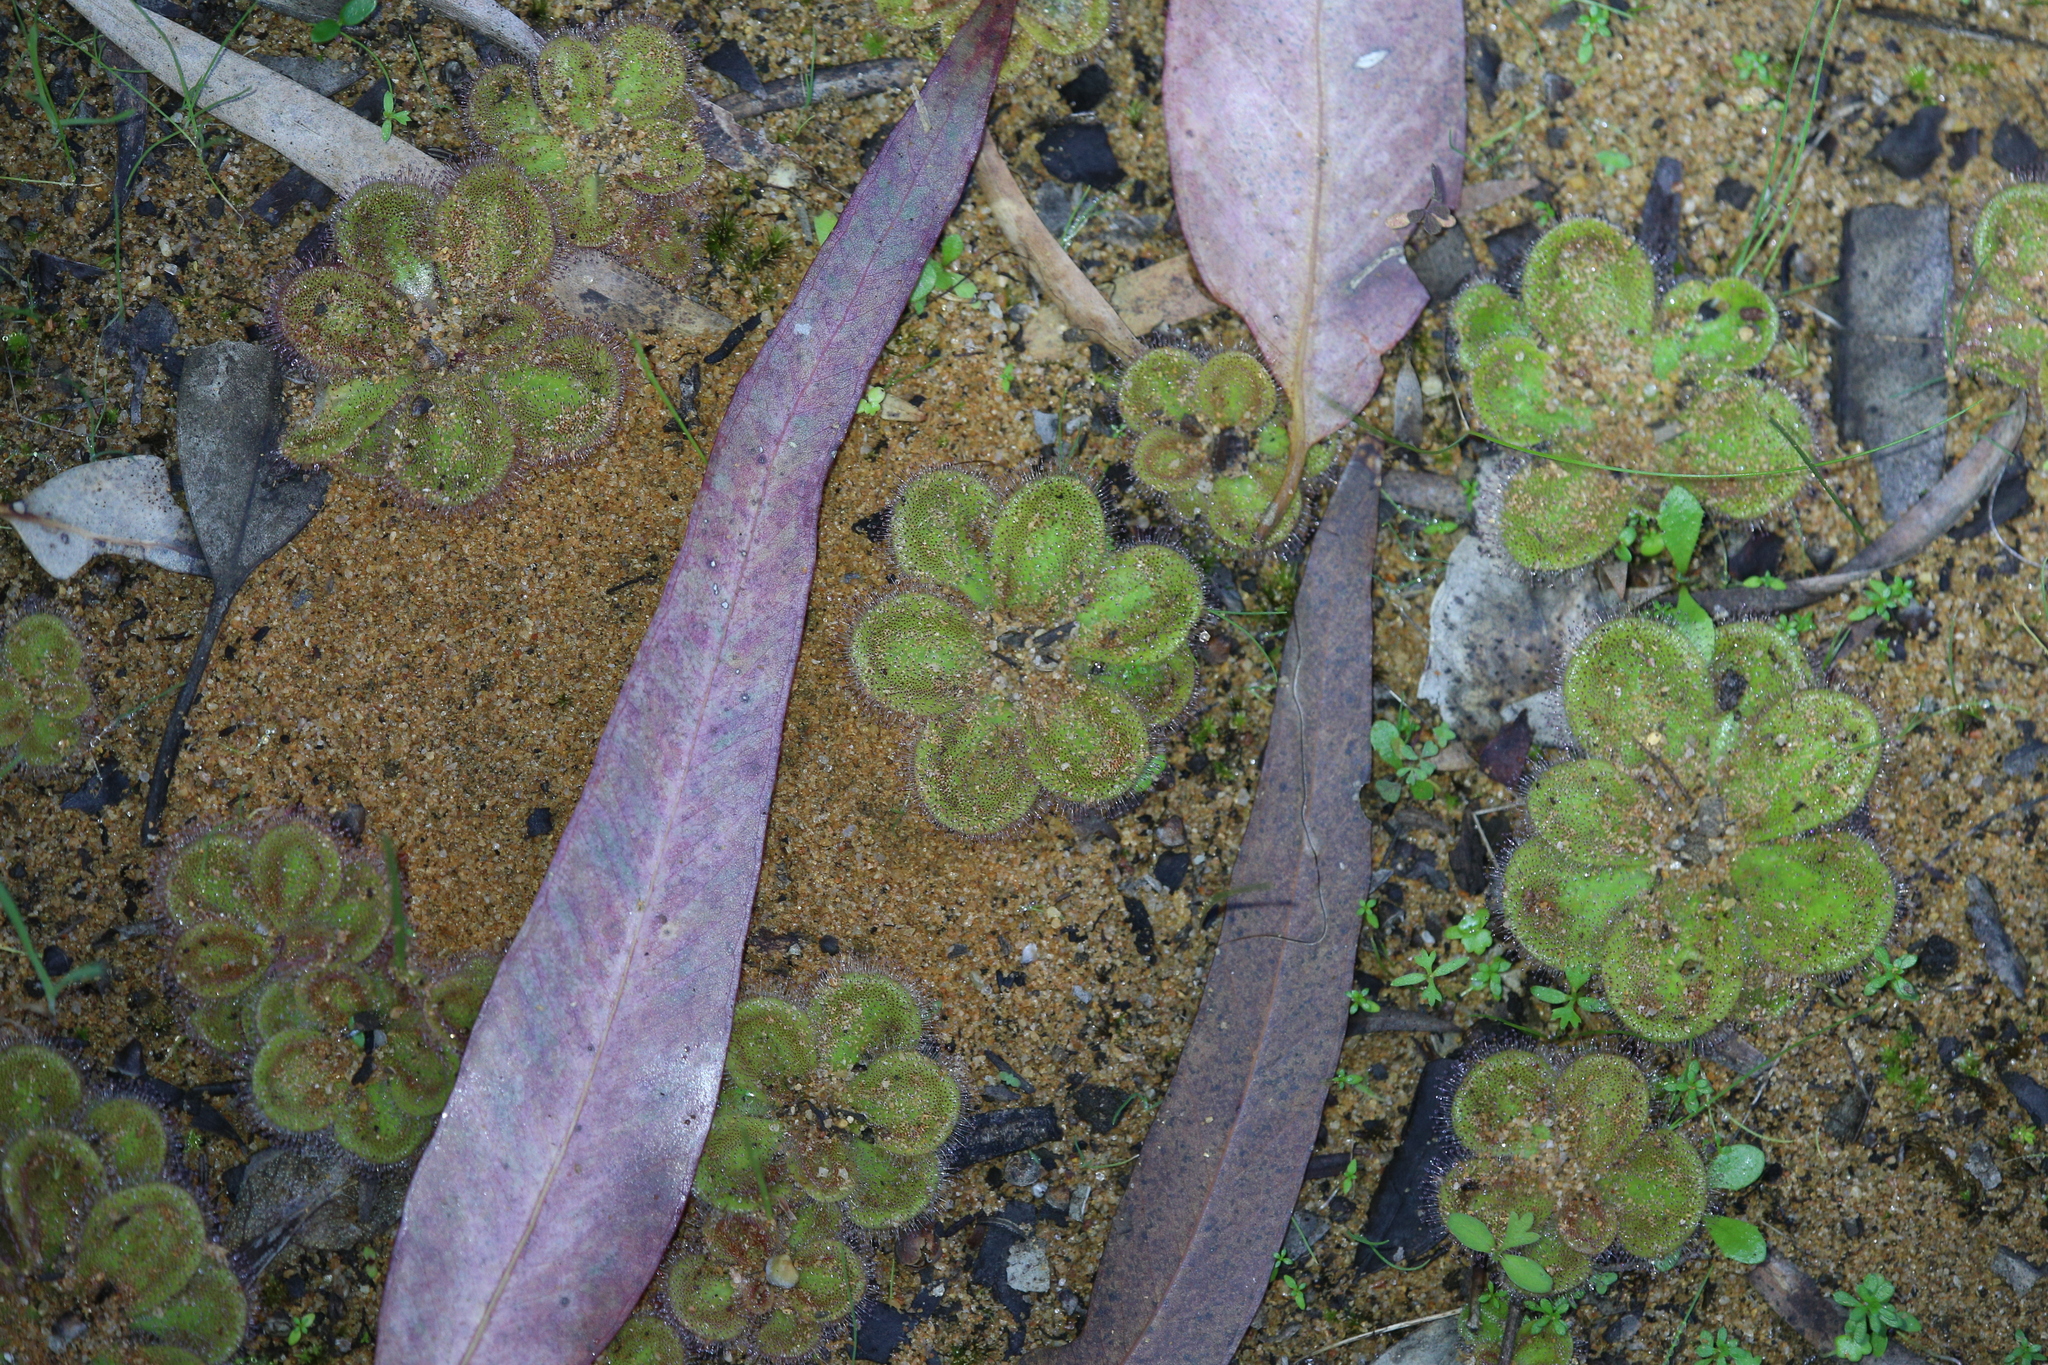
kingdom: Plantae
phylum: Tracheophyta
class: Magnoliopsida
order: Caryophyllales
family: Droseraceae
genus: Drosera
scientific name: Drosera erythrorhiza
